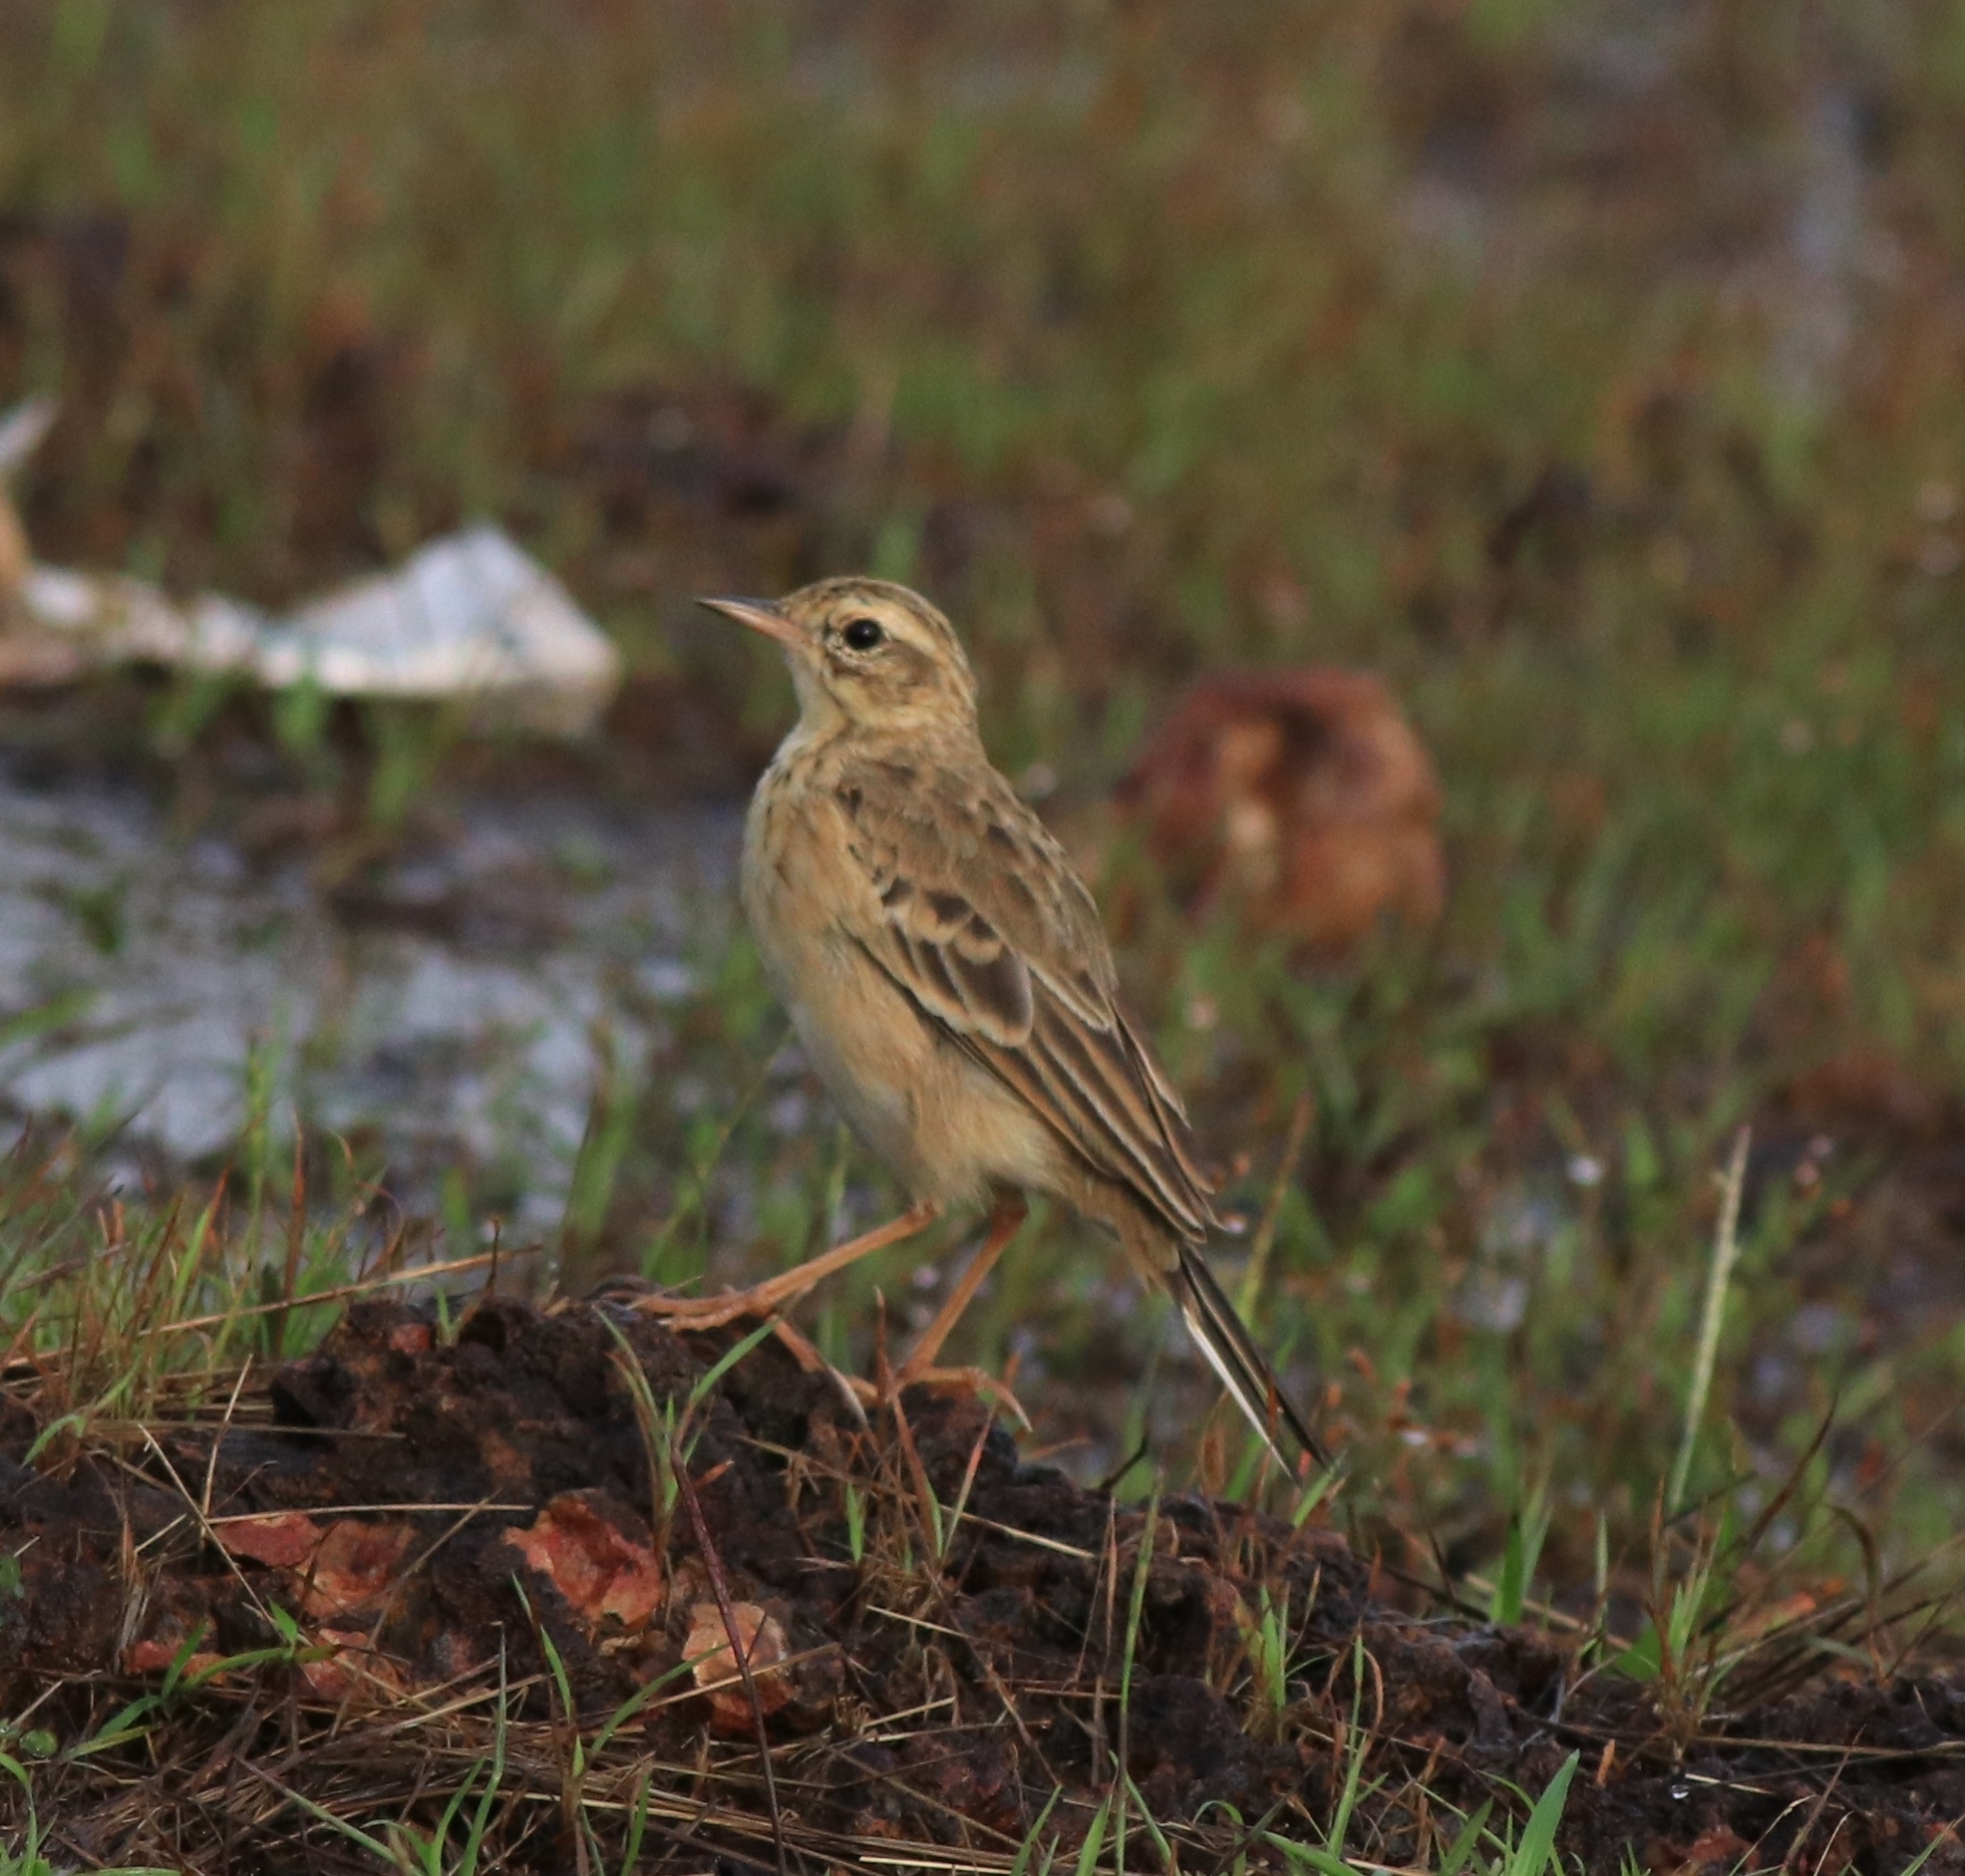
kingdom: Animalia
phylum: Chordata
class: Aves
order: Passeriformes
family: Motacillidae
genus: Anthus
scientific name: Anthus rufulus
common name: Paddyfield pipit
